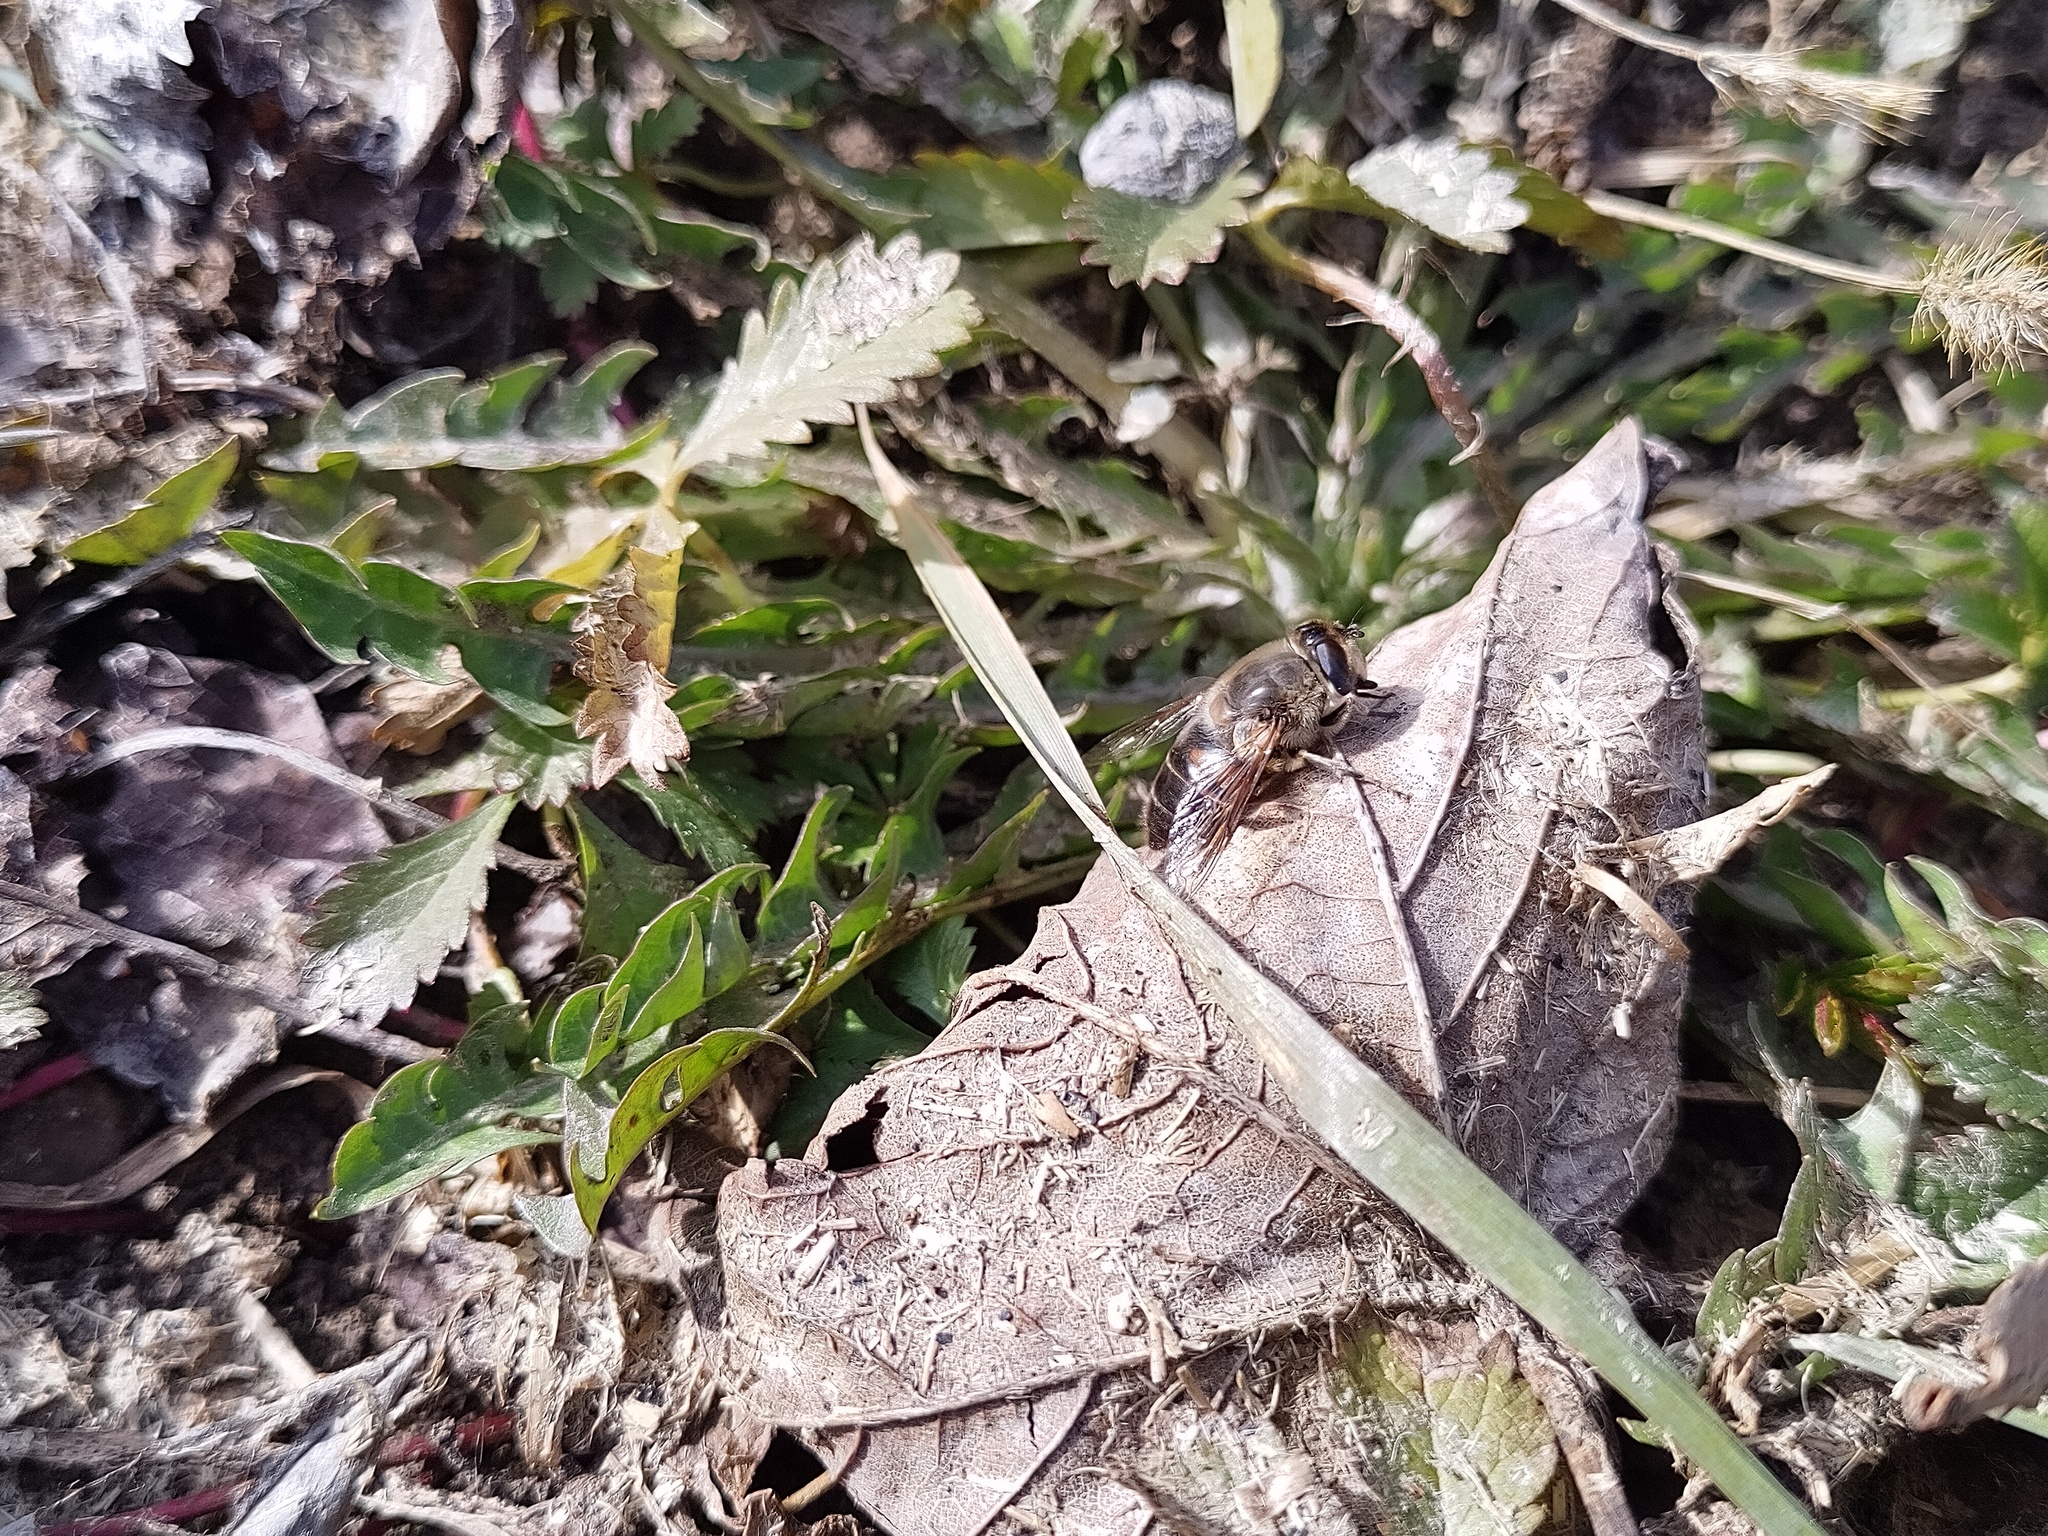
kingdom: Animalia
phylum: Arthropoda
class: Insecta
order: Diptera
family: Syrphidae
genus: Eristalis
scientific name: Eristalis tenax
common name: Drone fly
